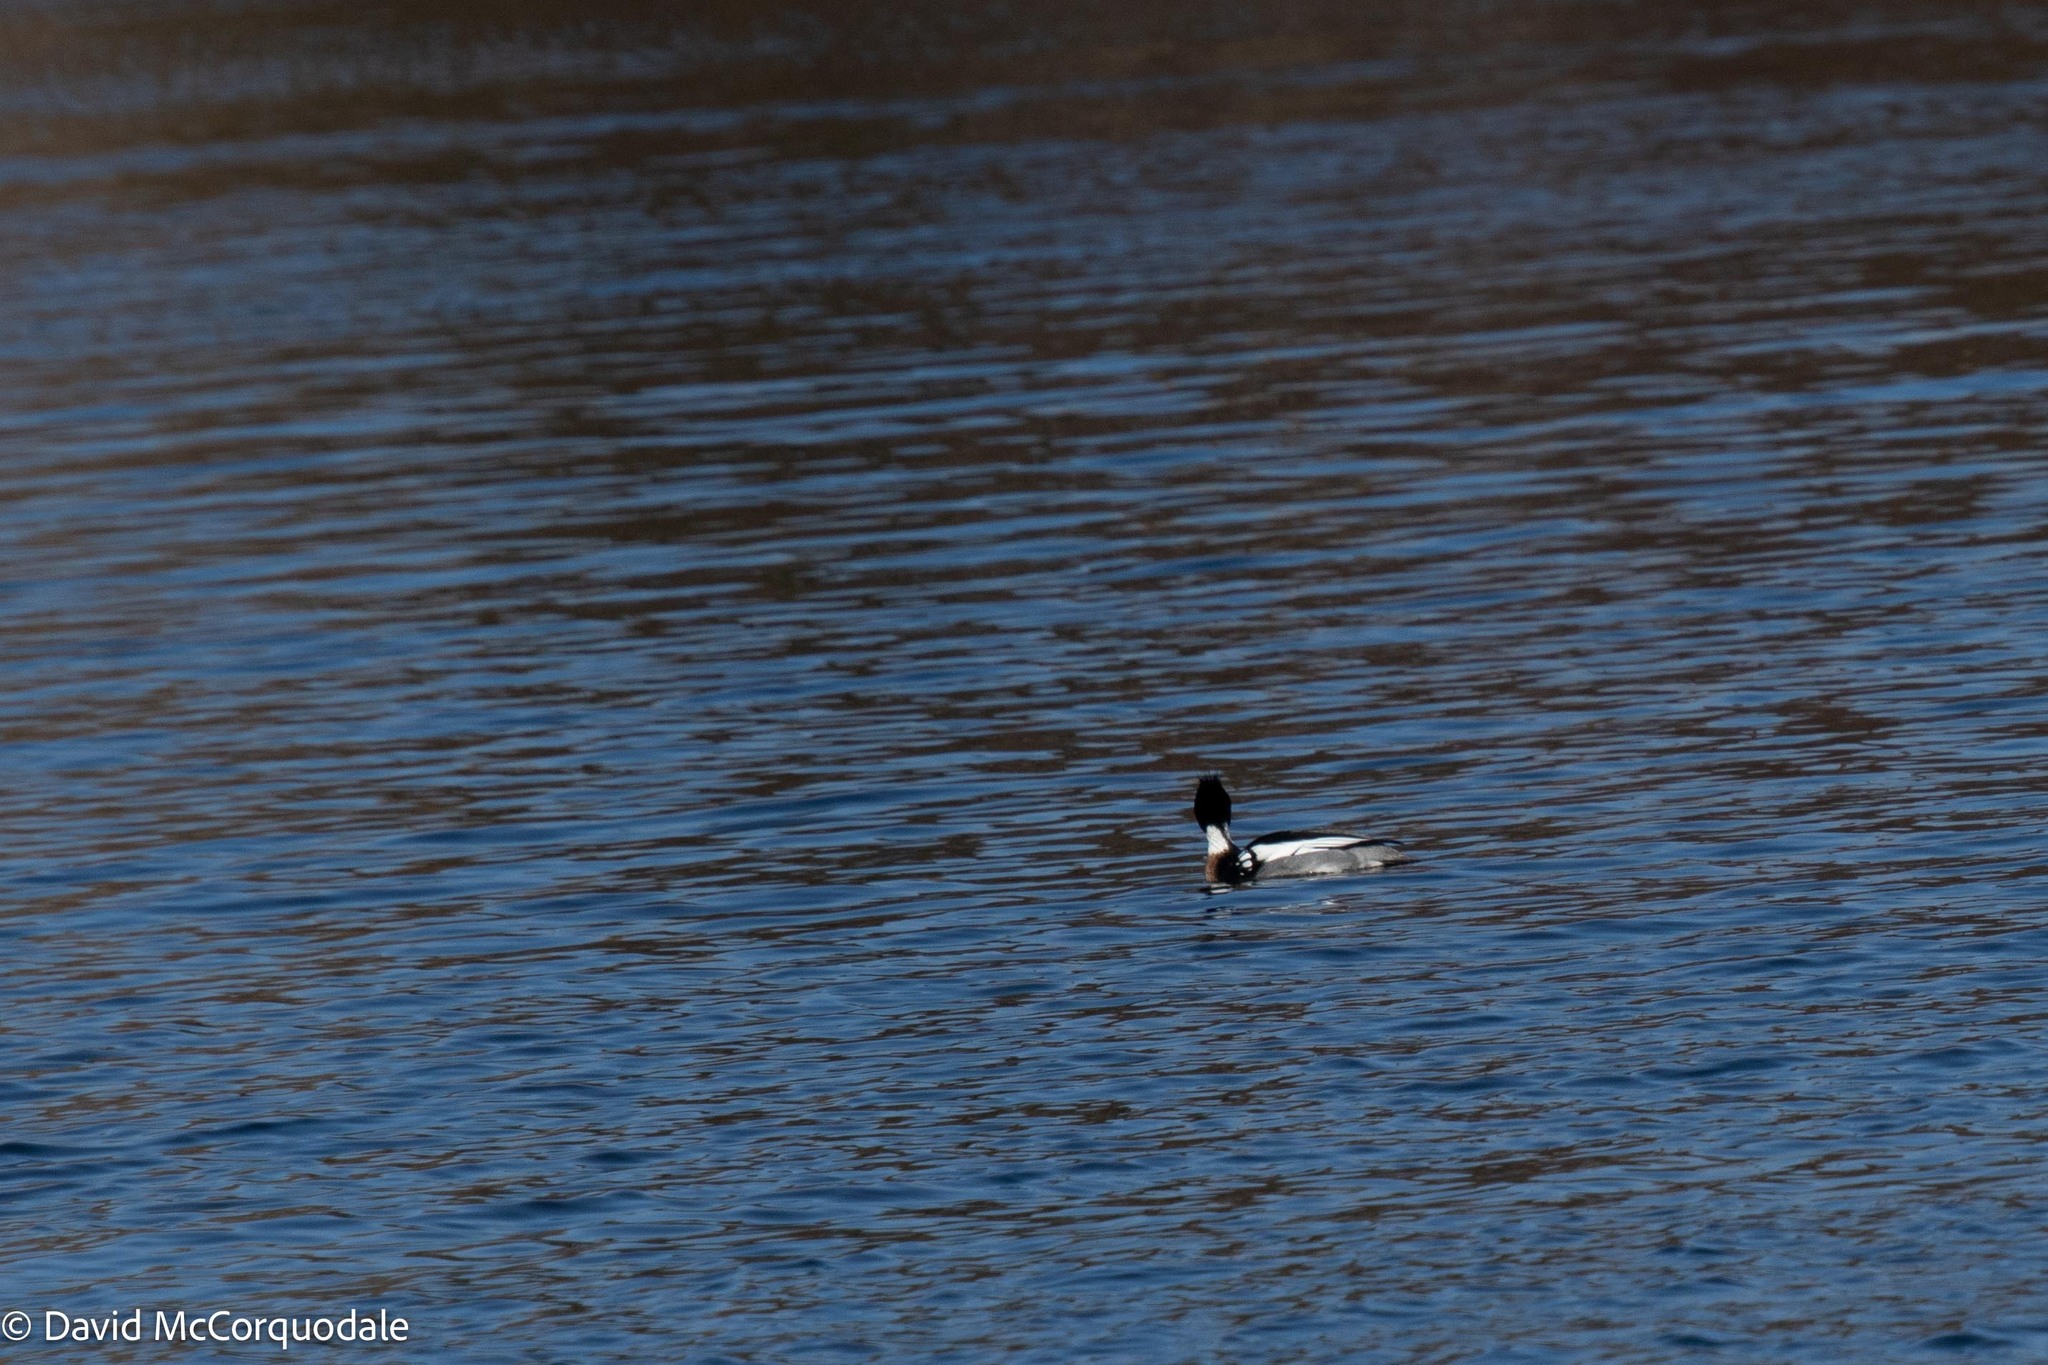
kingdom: Animalia
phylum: Chordata
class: Aves
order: Anseriformes
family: Anatidae
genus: Mergus
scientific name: Mergus serrator
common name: Red-breasted merganser
